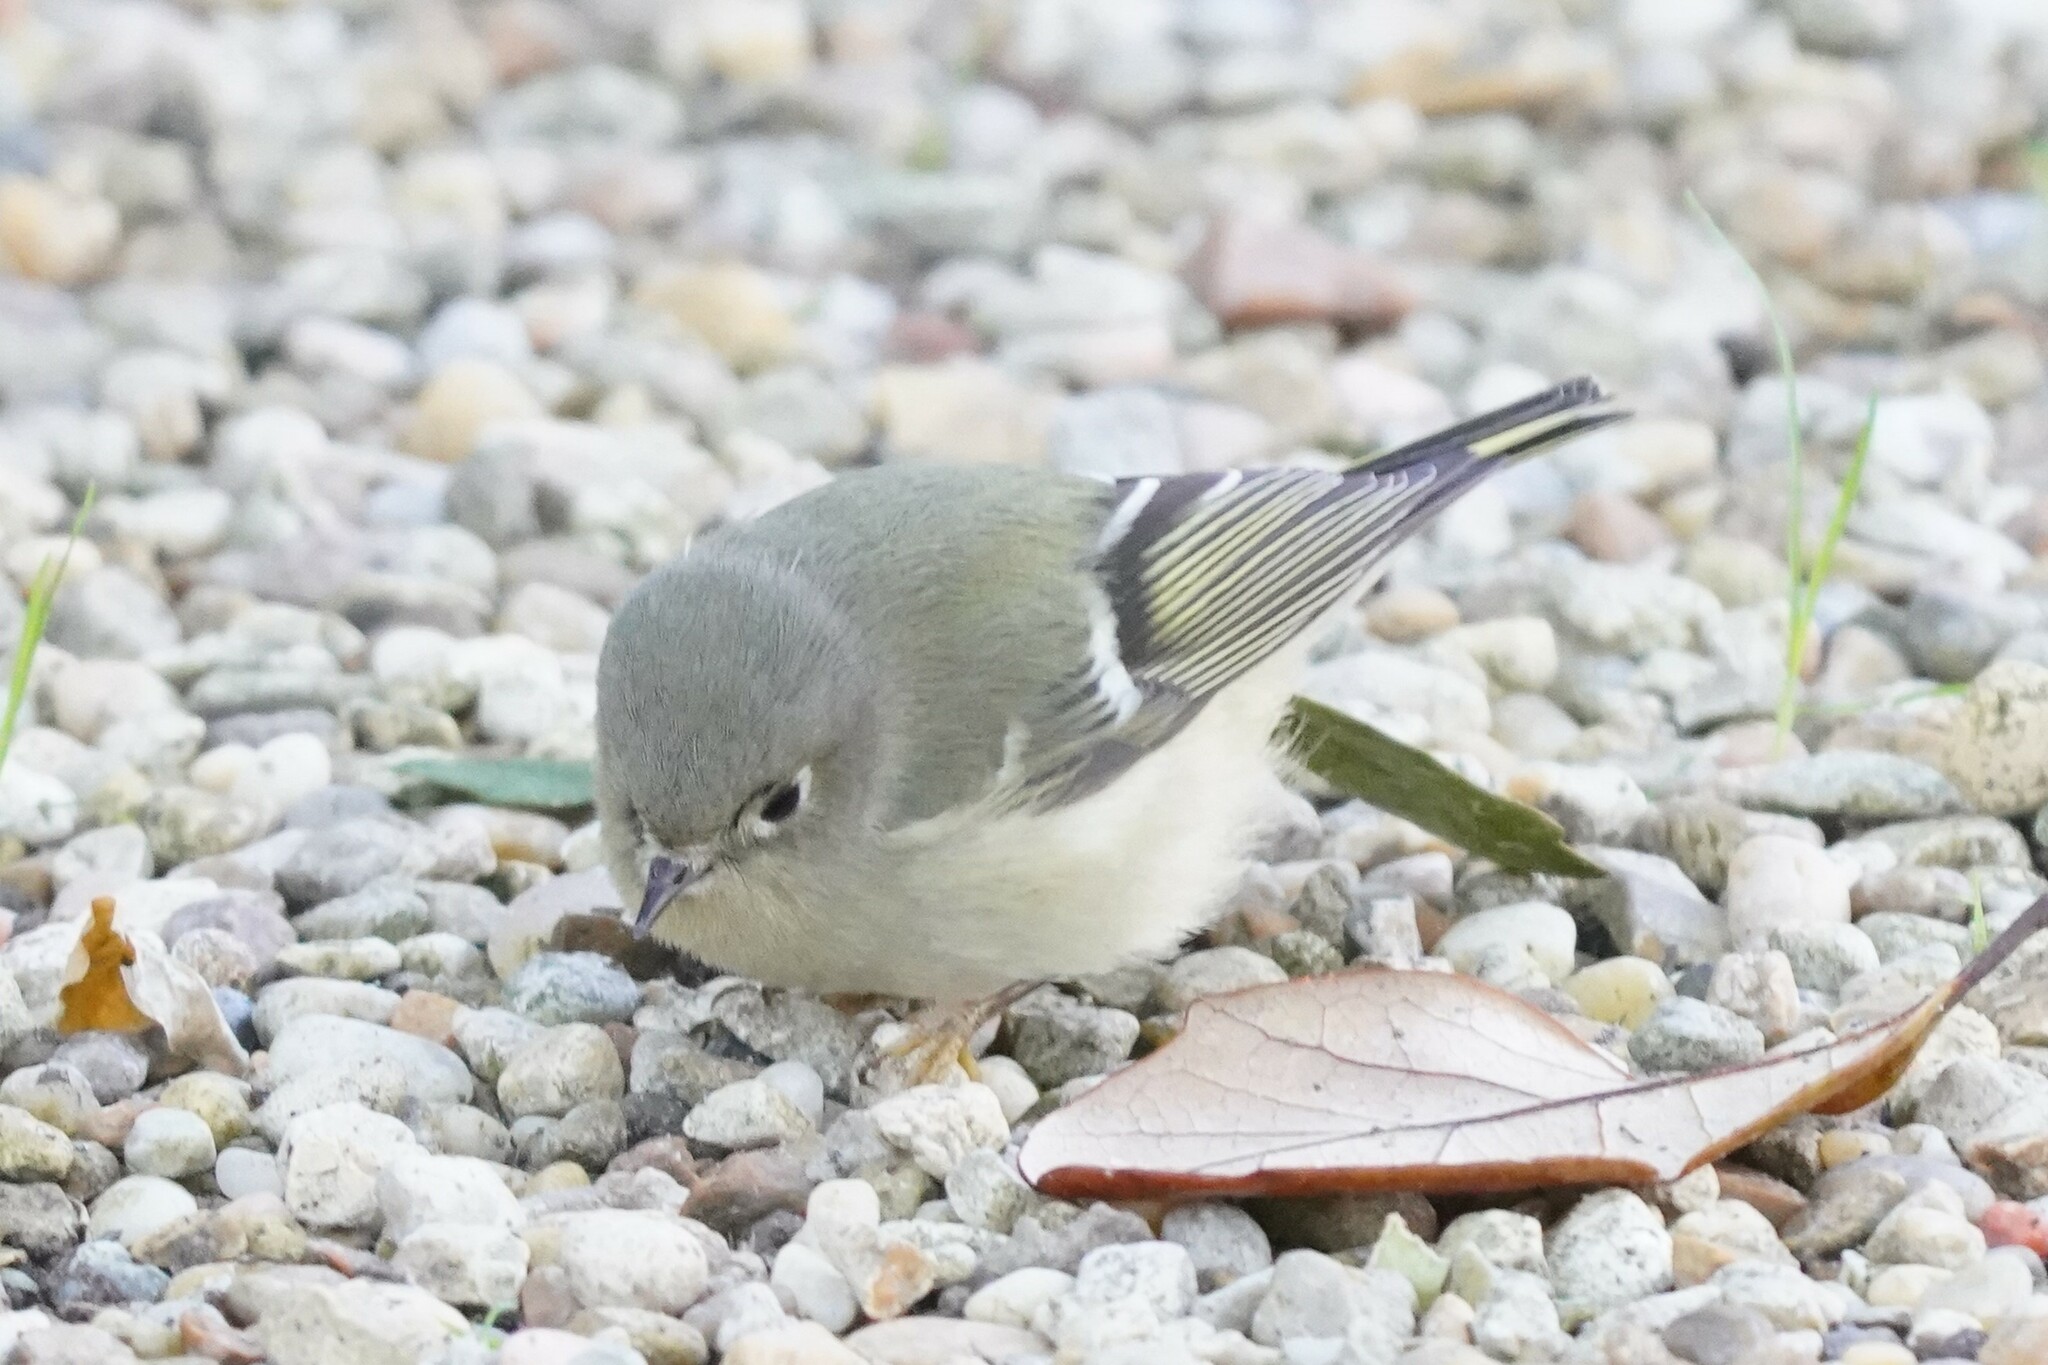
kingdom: Animalia
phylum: Chordata
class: Aves
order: Passeriformes
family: Regulidae
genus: Regulus
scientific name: Regulus calendula
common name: Ruby-crowned kinglet
